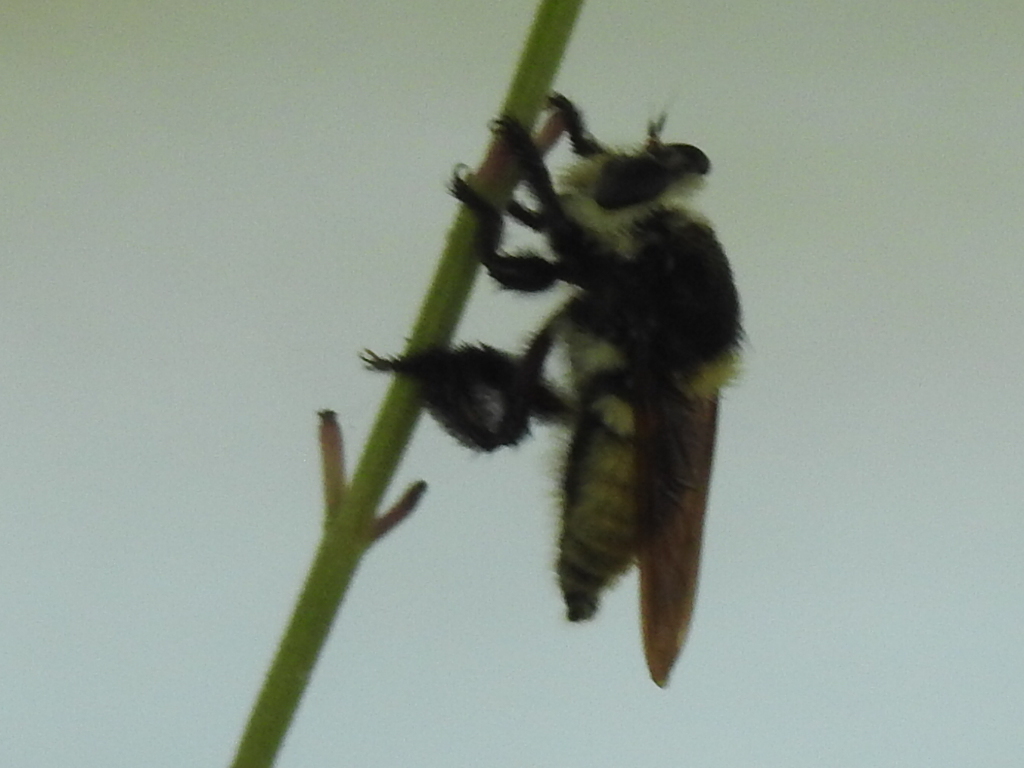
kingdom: Animalia
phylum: Arthropoda
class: Insecta
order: Diptera
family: Asilidae
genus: Mallophora
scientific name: Mallophora fautrix
